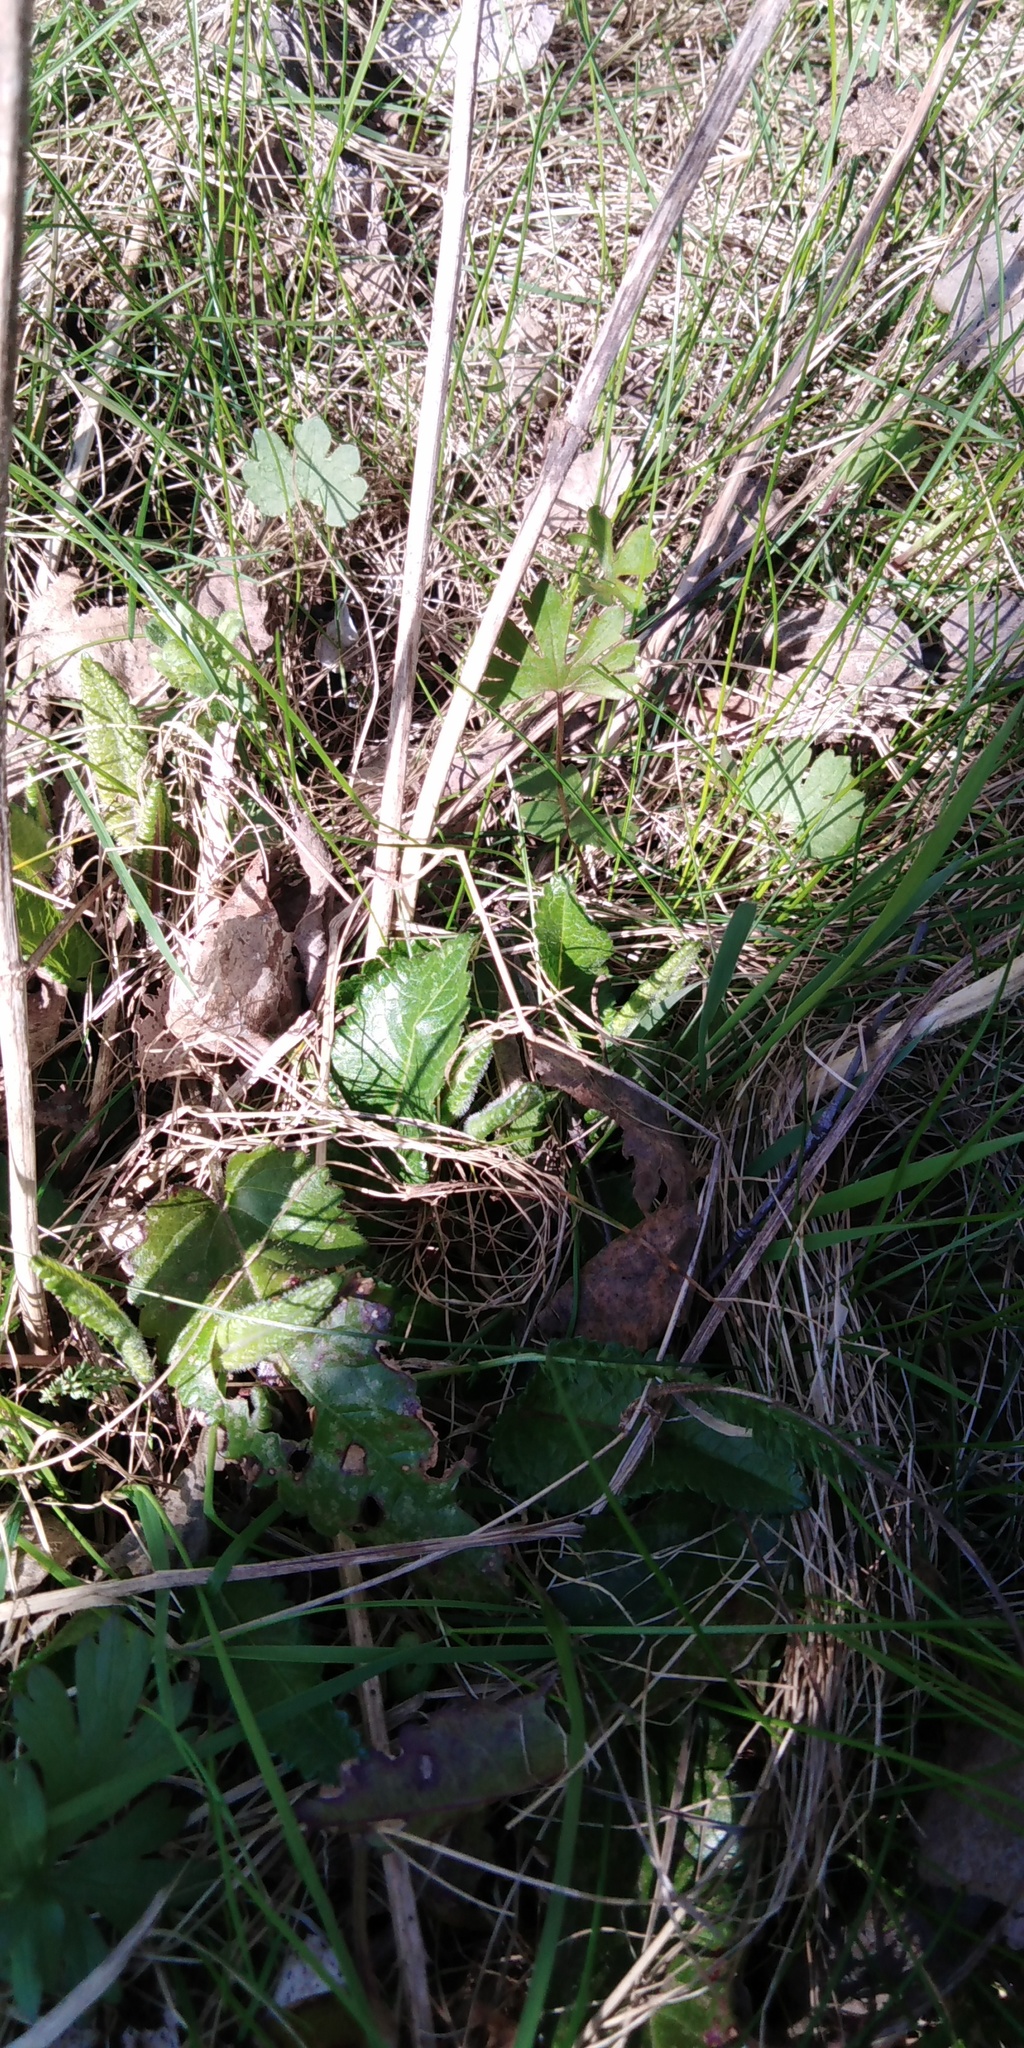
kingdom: Plantae
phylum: Tracheophyta
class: Magnoliopsida
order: Lamiales
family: Lamiaceae
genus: Betonica
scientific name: Betonica officinalis
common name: Bishop's-wort
